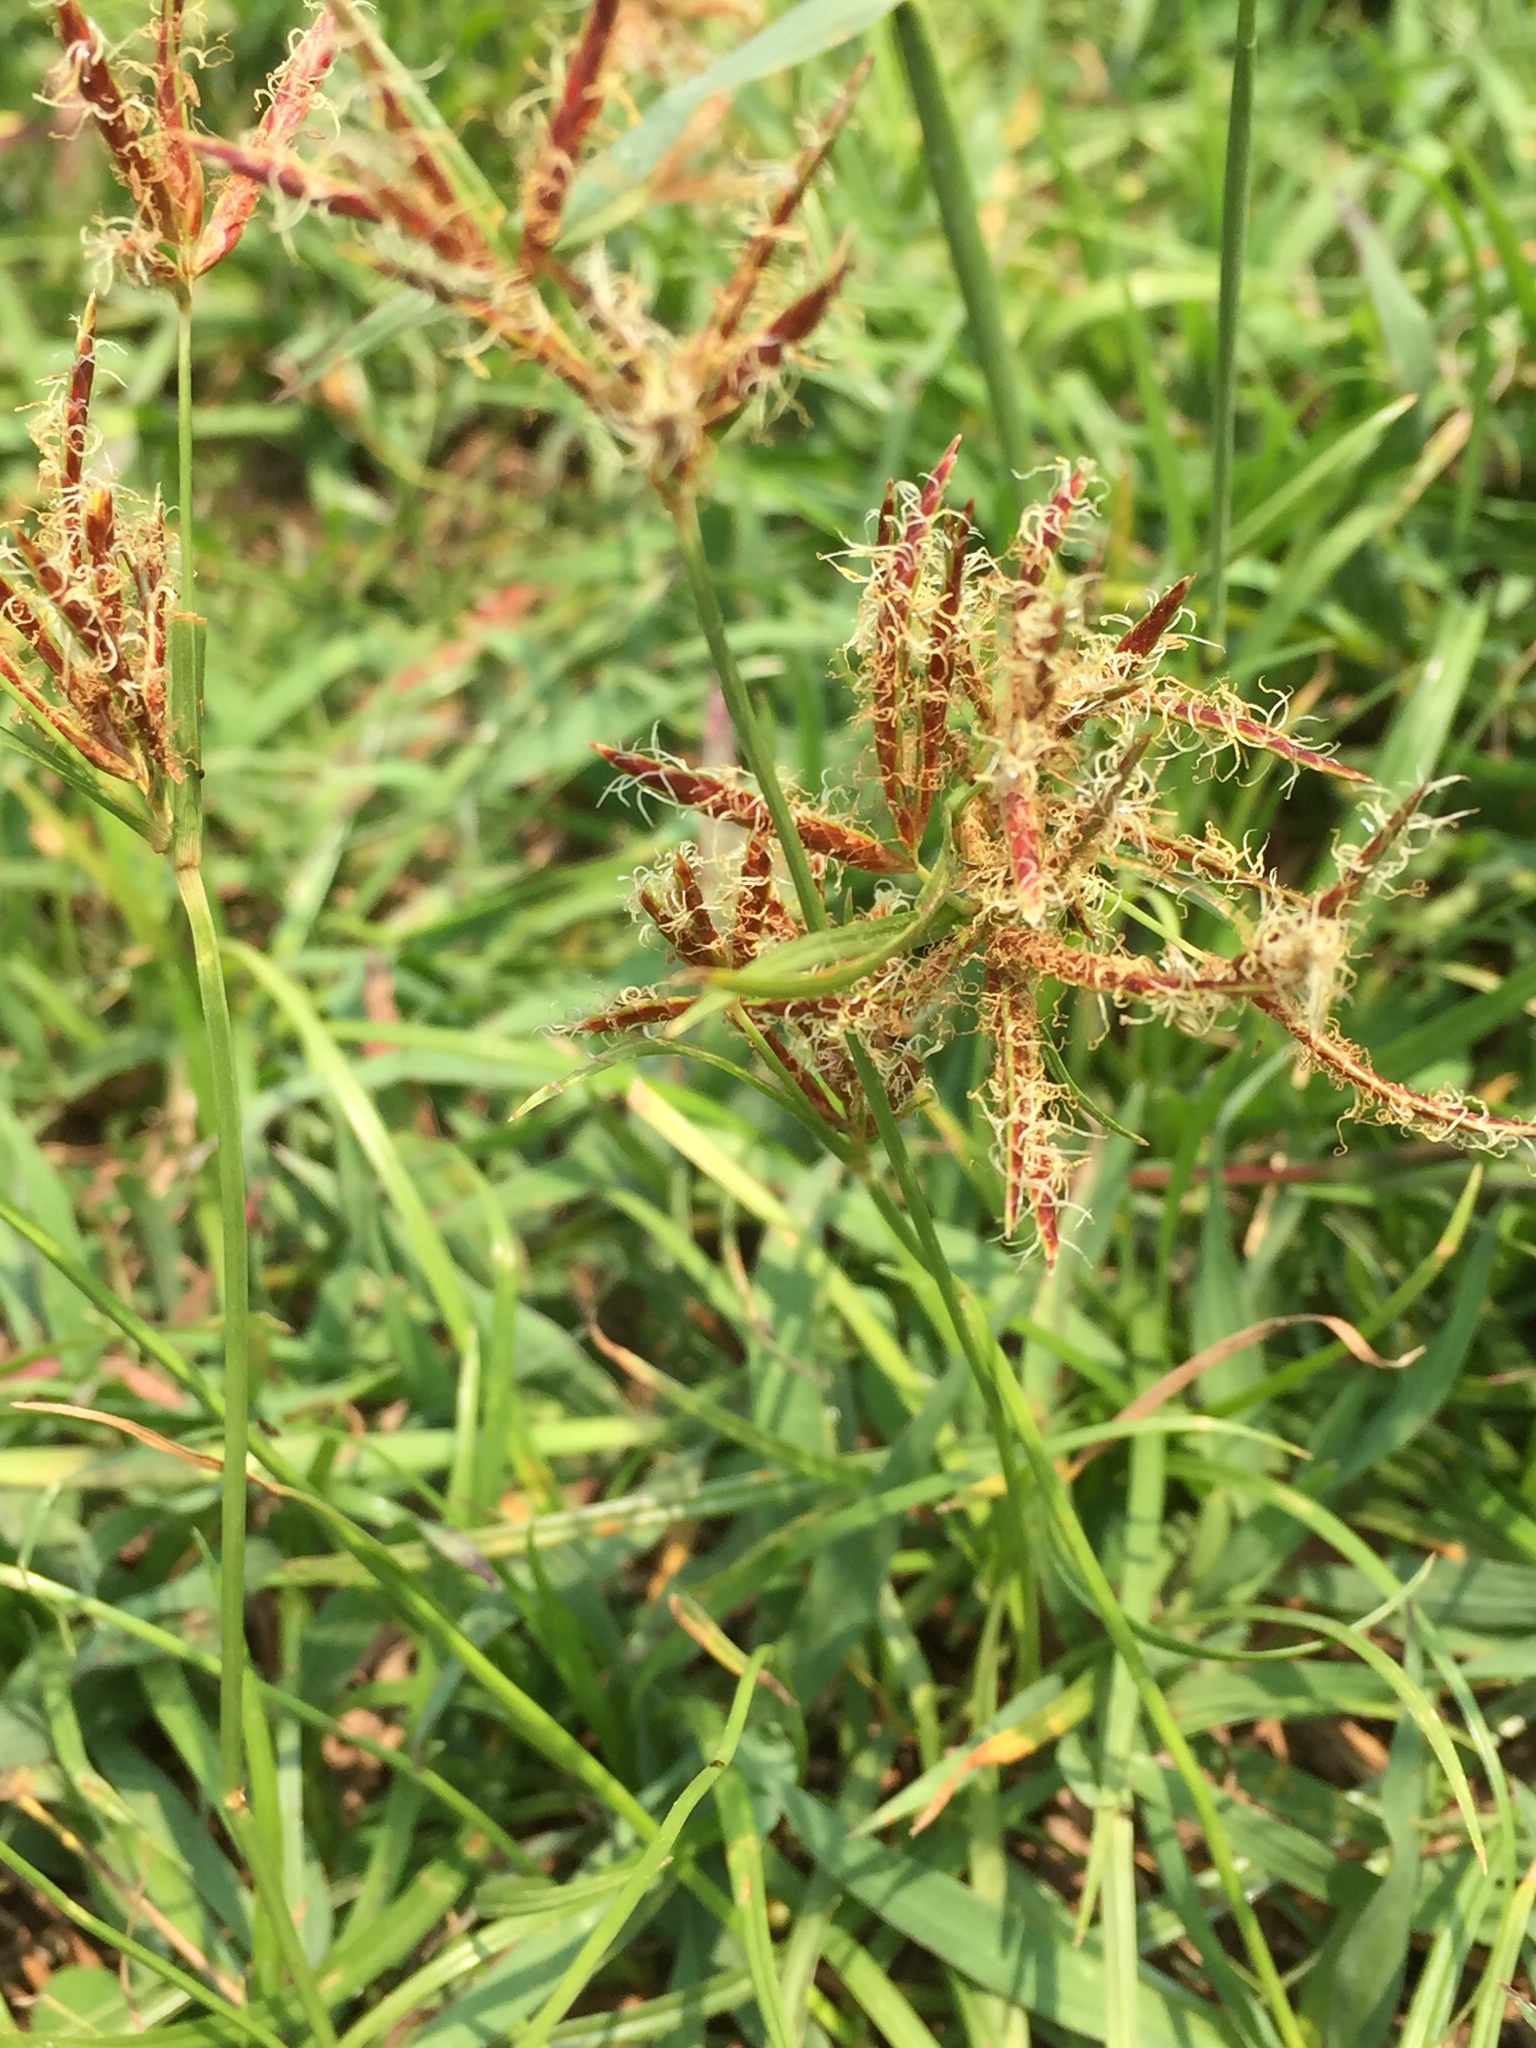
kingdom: Plantae
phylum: Tracheophyta
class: Liliopsida
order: Poales
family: Cyperaceae
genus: Cyperus
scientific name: Cyperus rotundus
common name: Nutgrass
